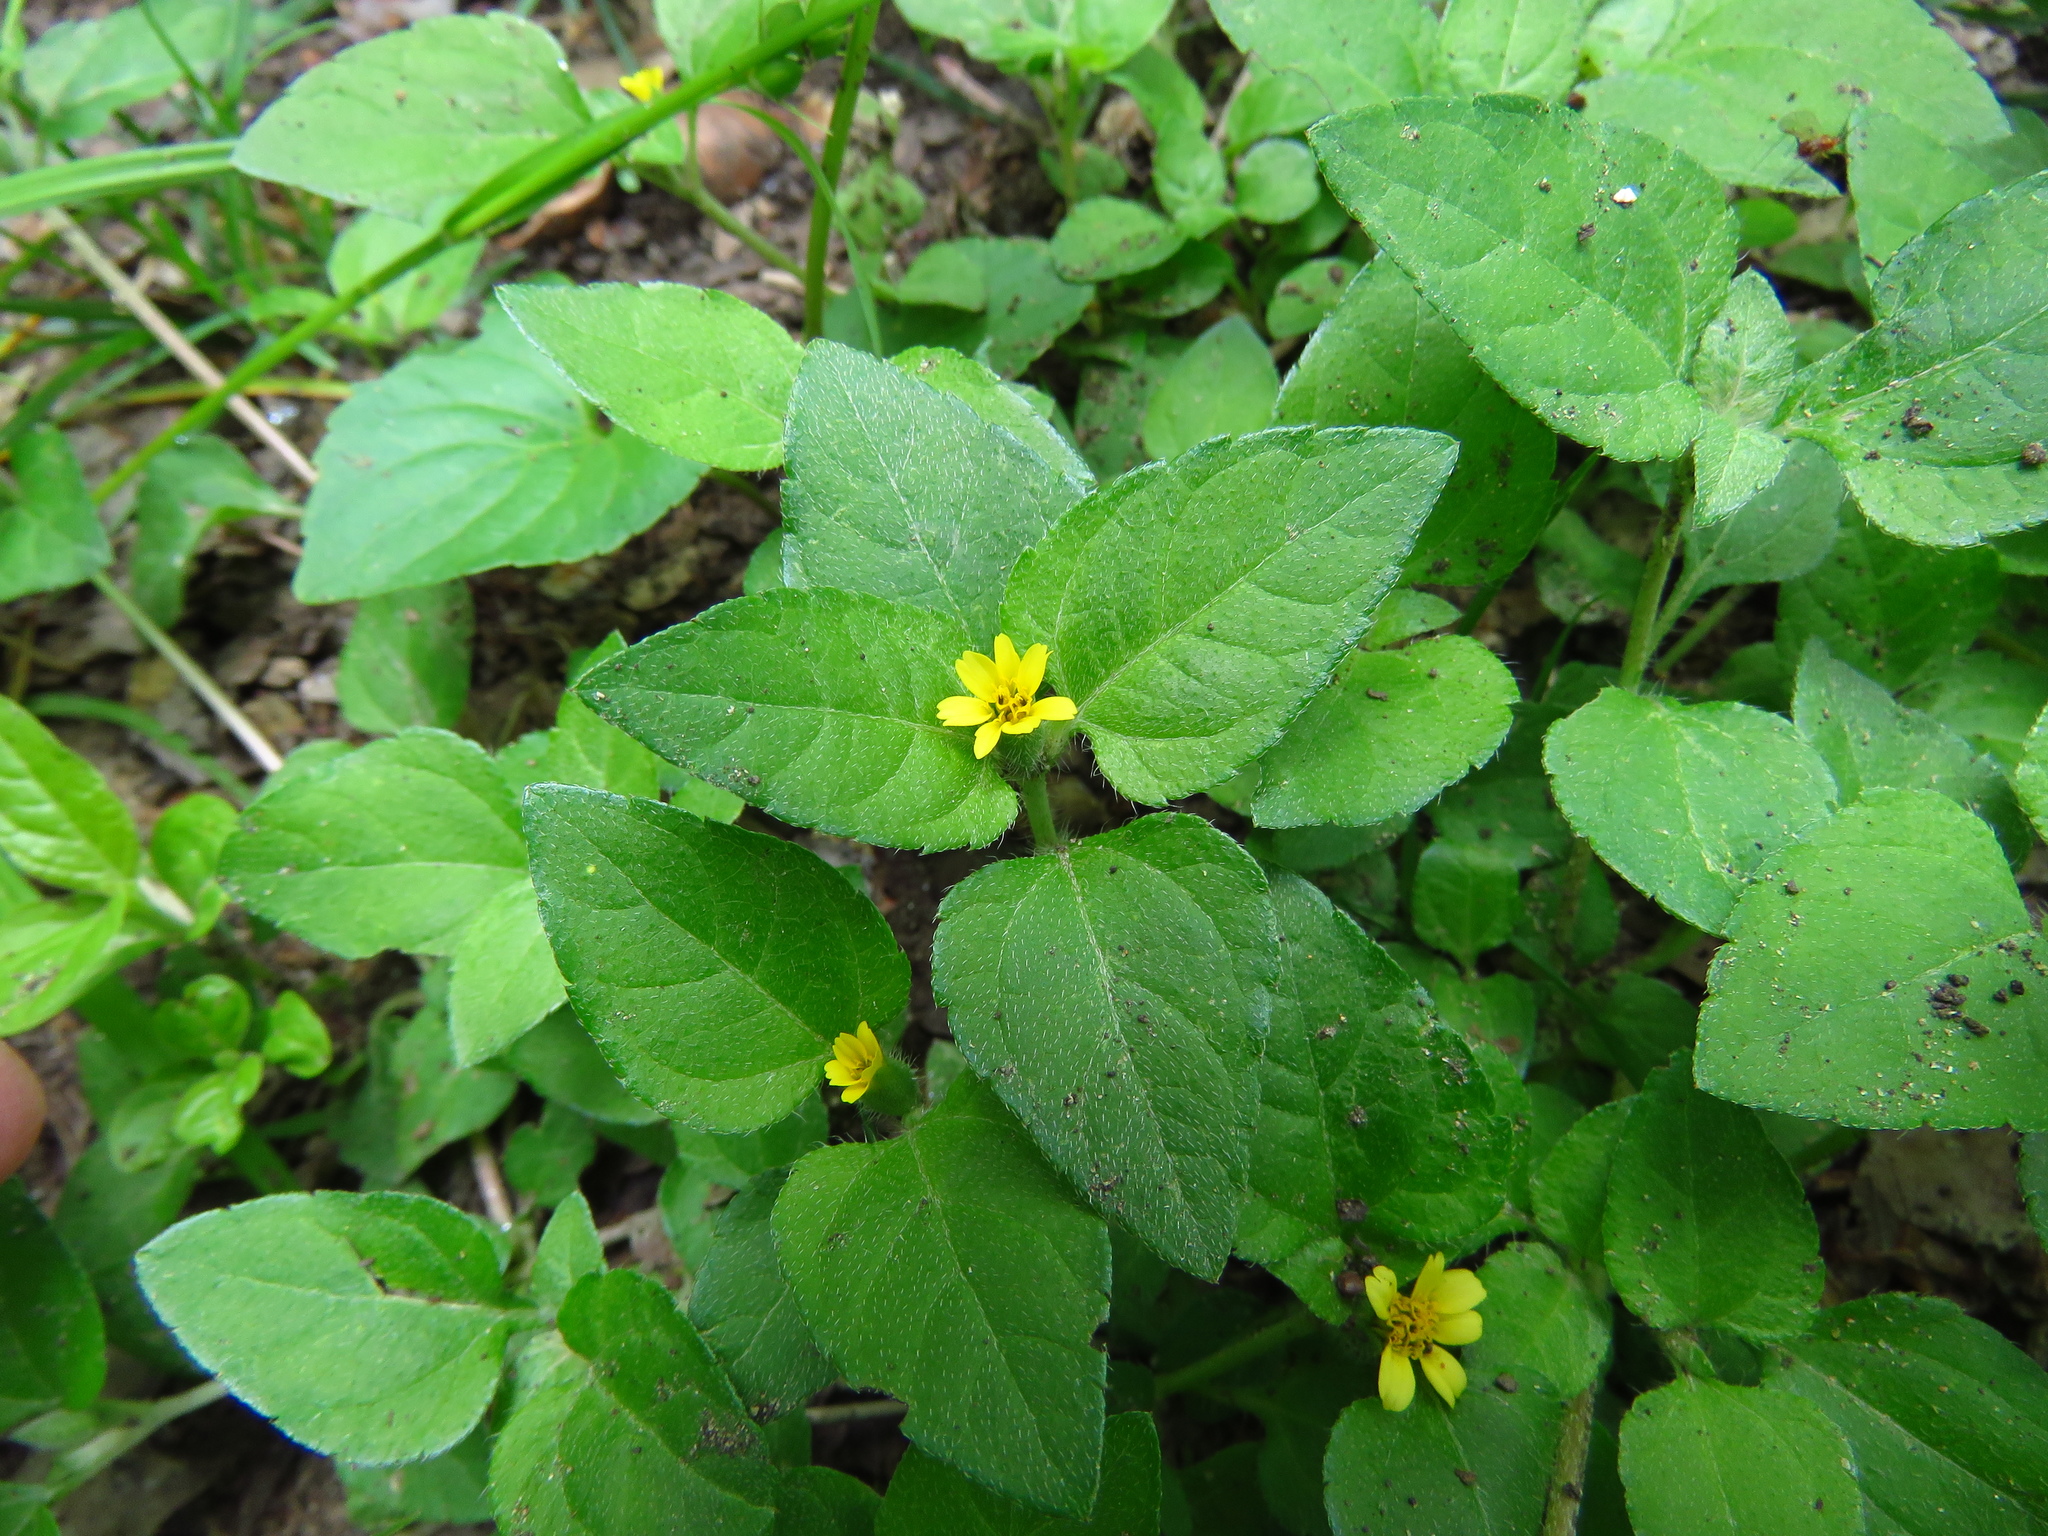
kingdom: Plantae
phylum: Tracheophyta
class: Magnoliopsida
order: Asterales
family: Asteraceae
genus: Calyptocarpus
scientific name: Calyptocarpus vialis
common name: Straggler daisy
